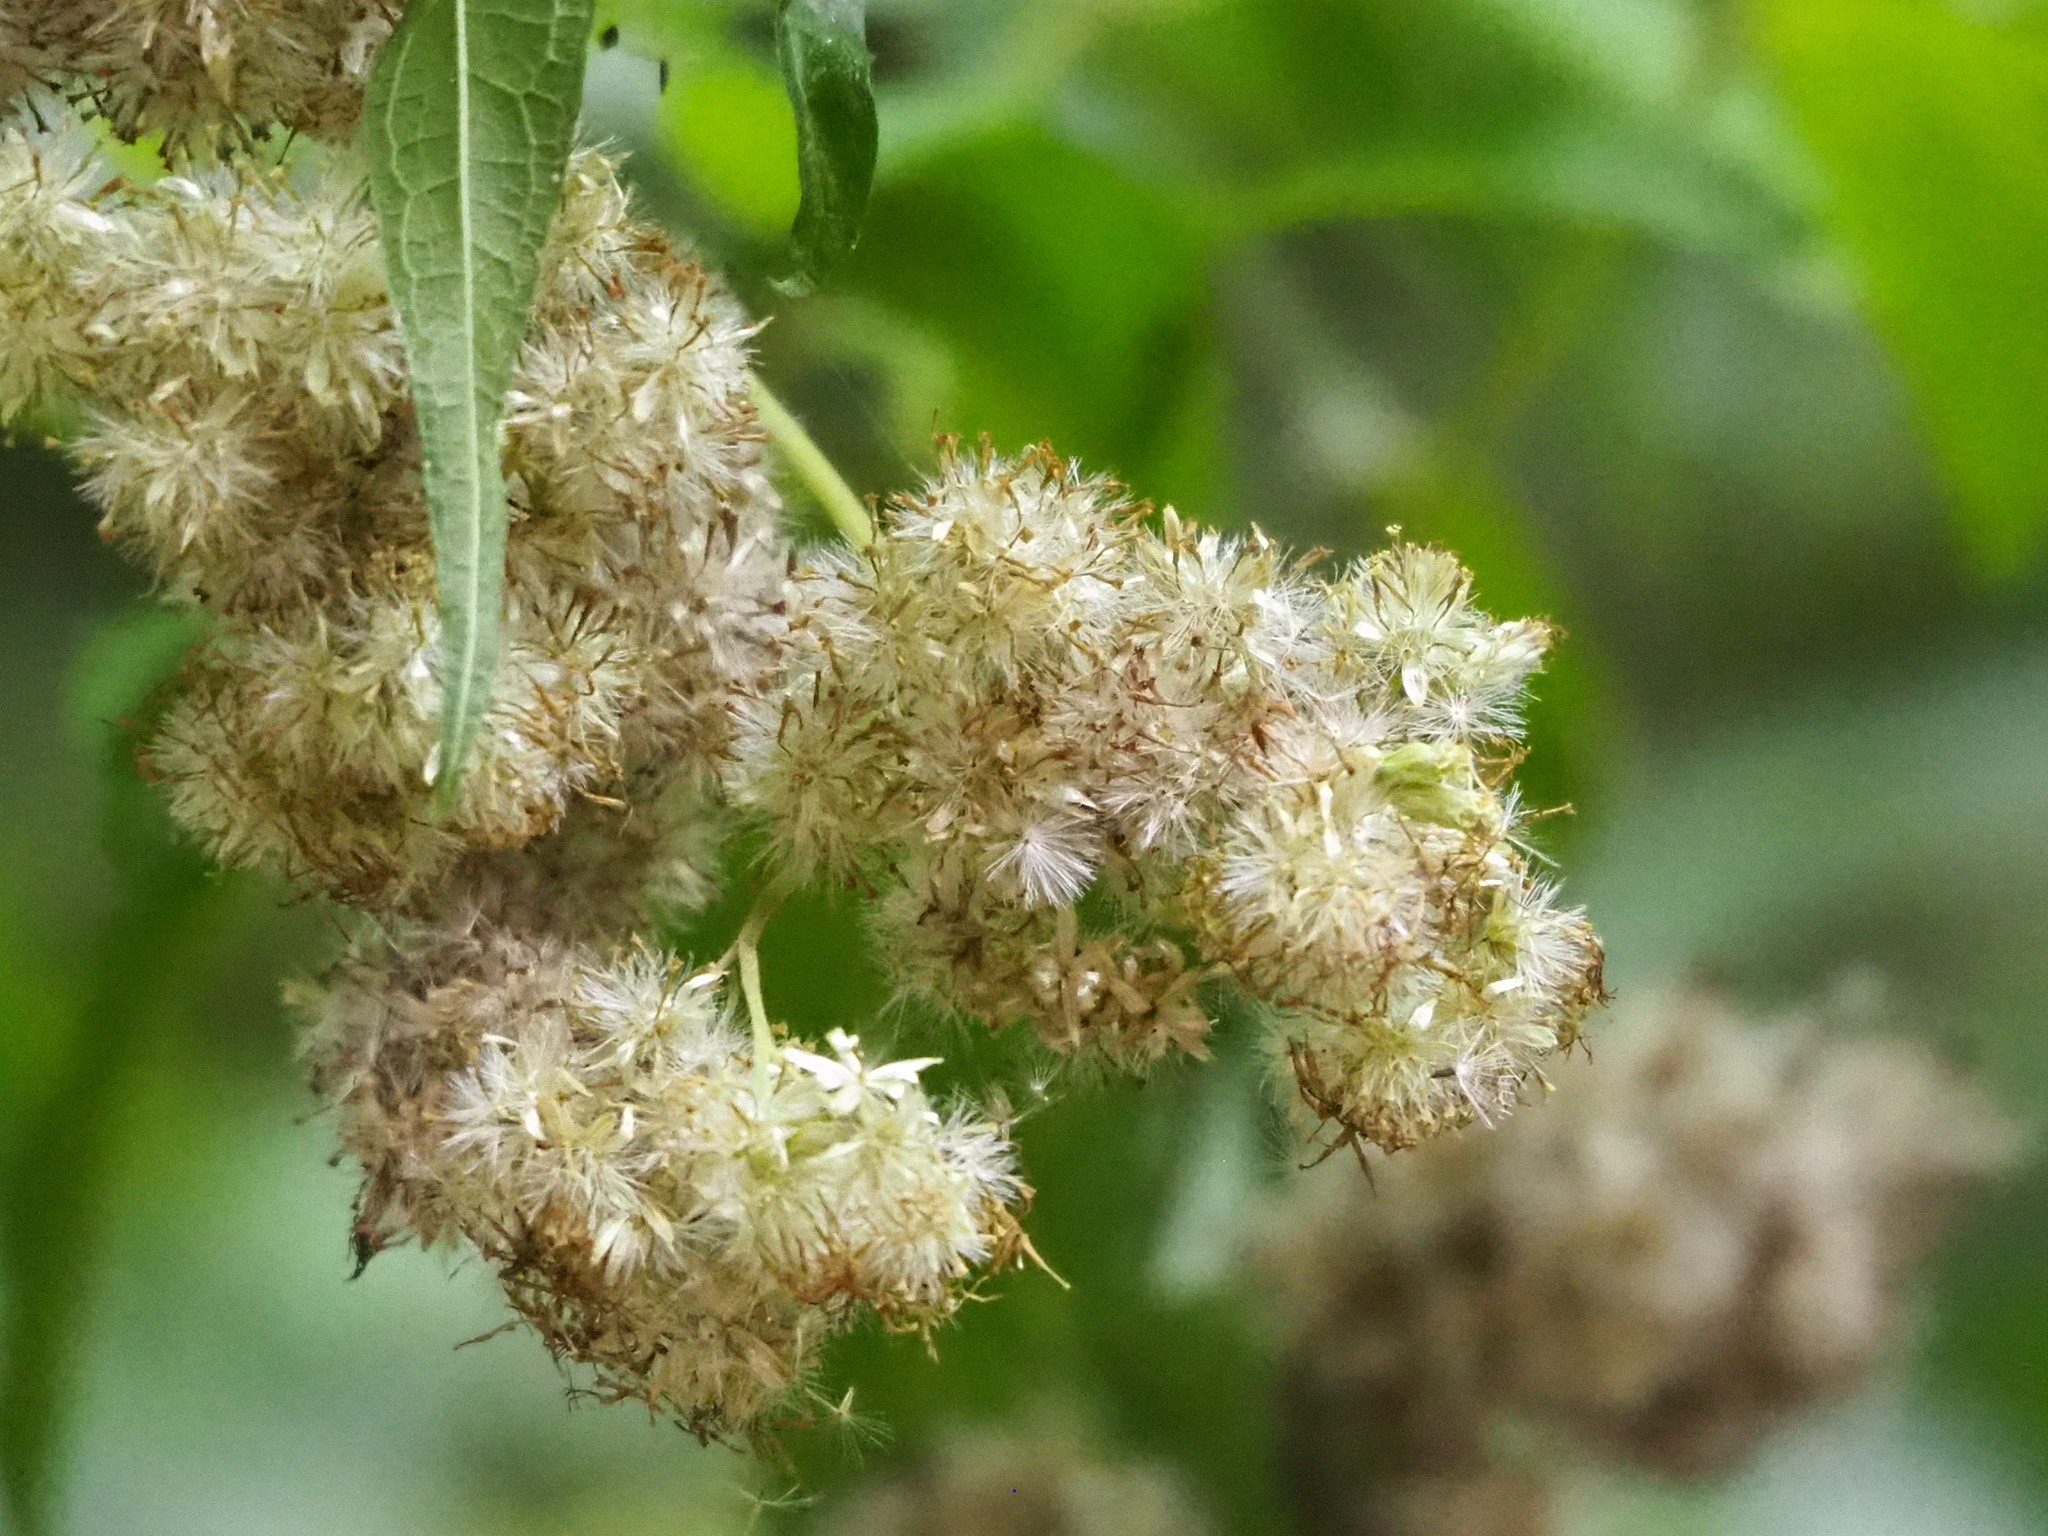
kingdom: Plantae
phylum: Tracheophyta
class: Magnoliopsida
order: Asterales
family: Asteraceae
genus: Austroeupatorium
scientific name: Austroeupatorium inulifolium
